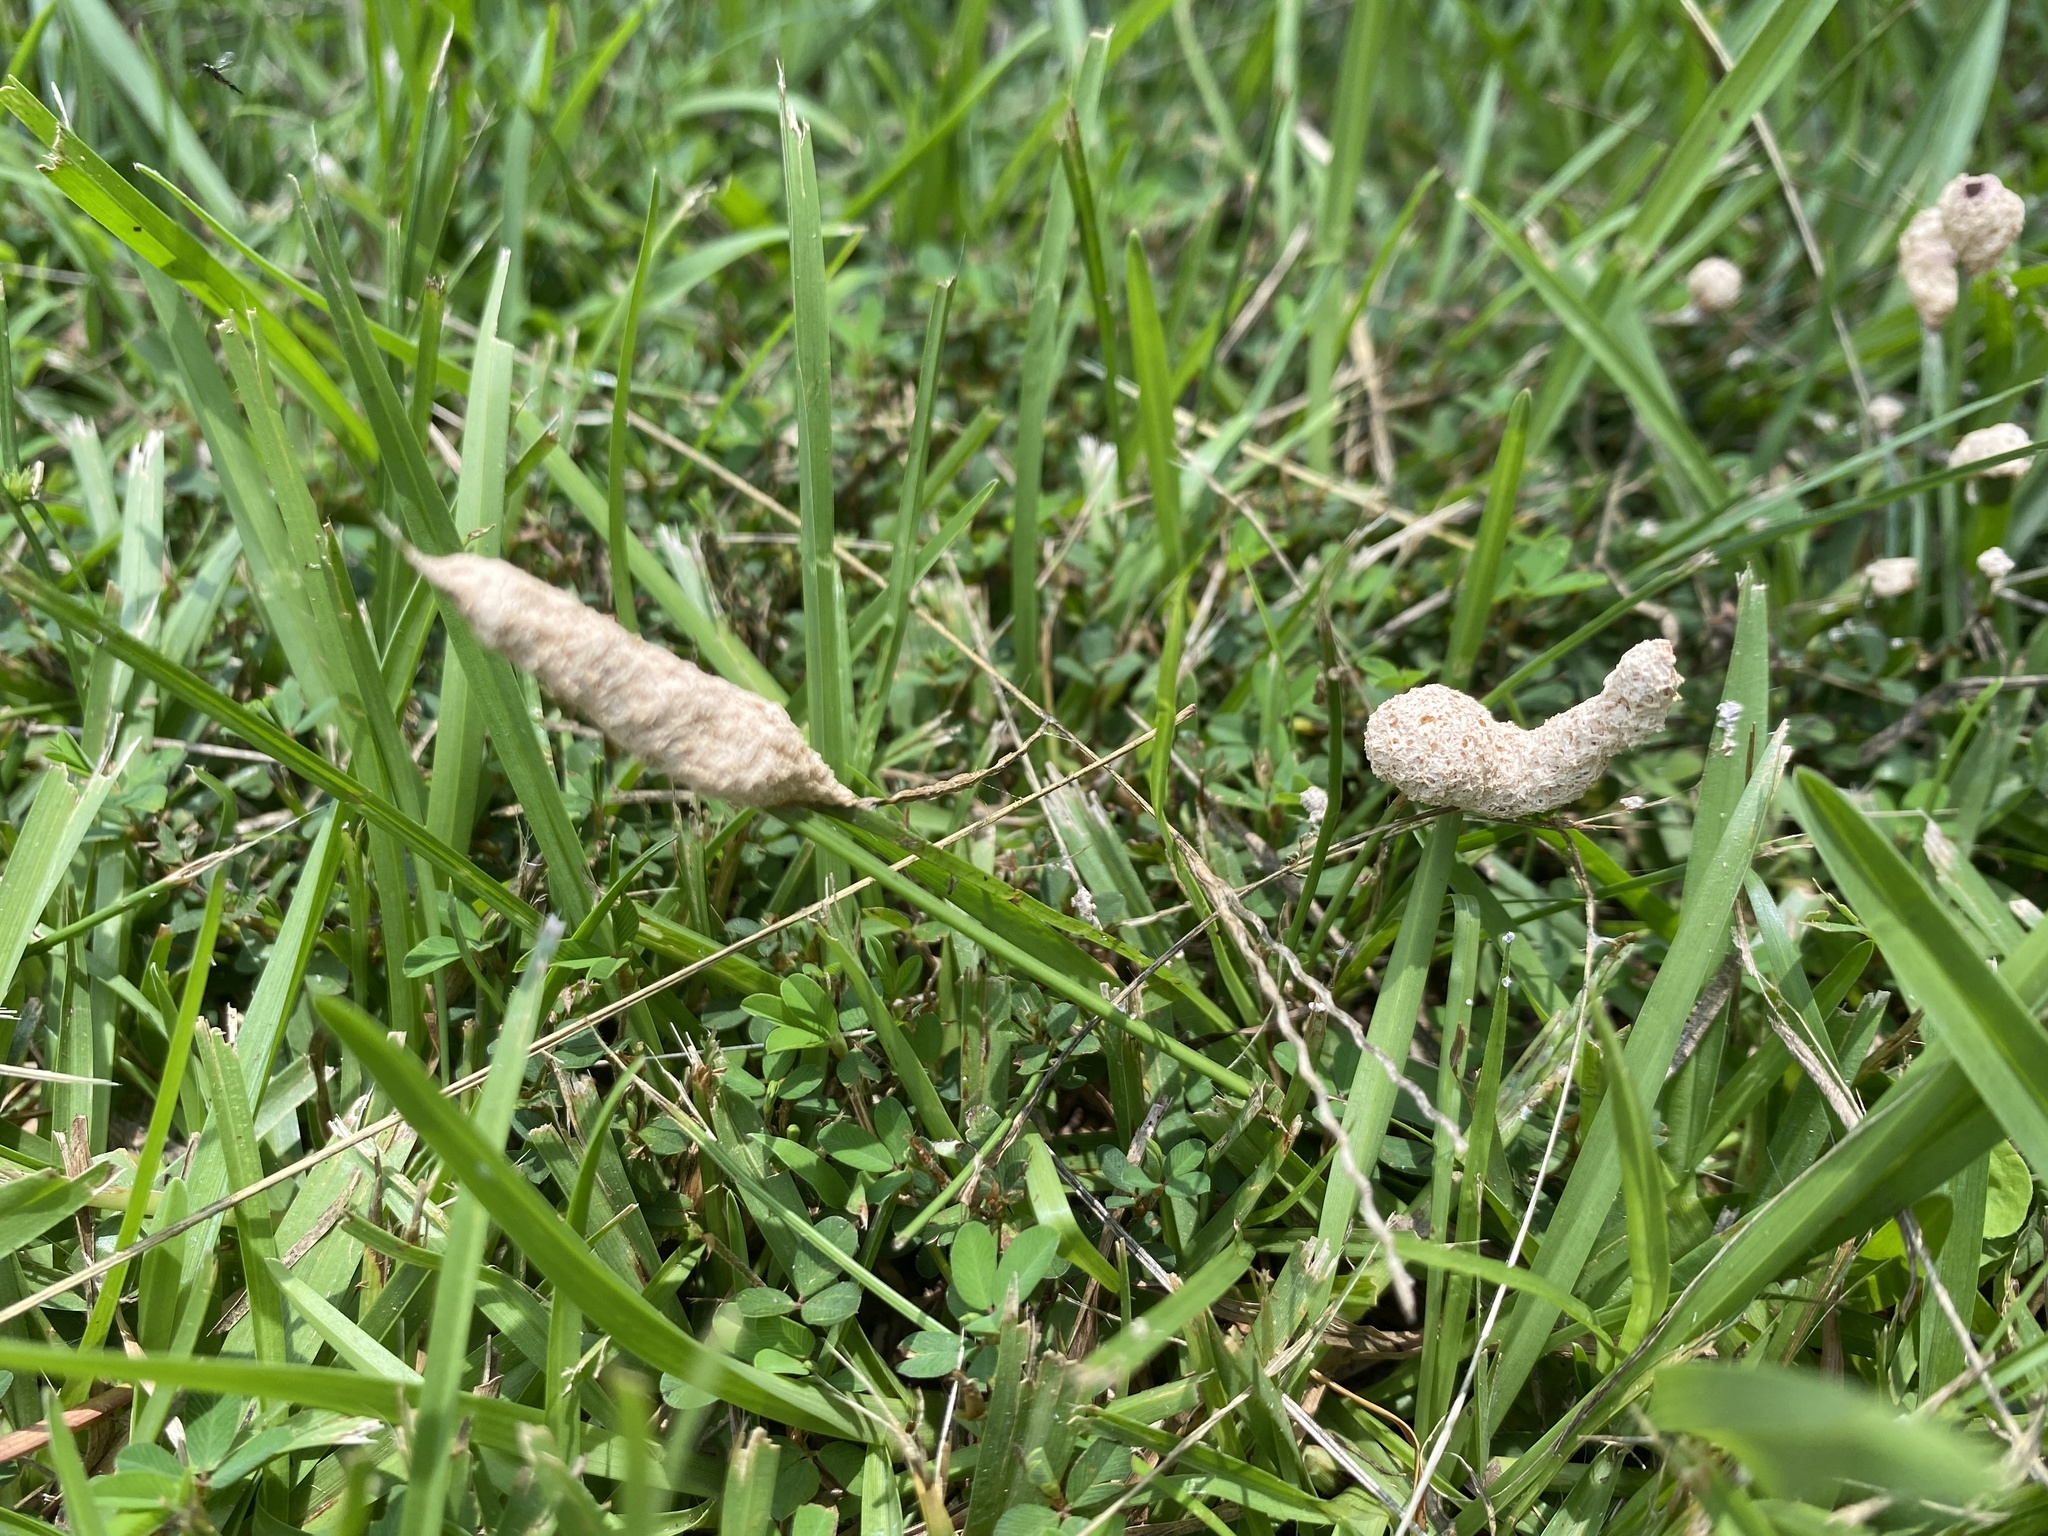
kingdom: Protozoa
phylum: Mycetozoa
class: Myxomycetes
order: Physarales
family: Physaraceae
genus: Fuligo
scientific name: Fuligo septica
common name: Dog vomit slime mold
